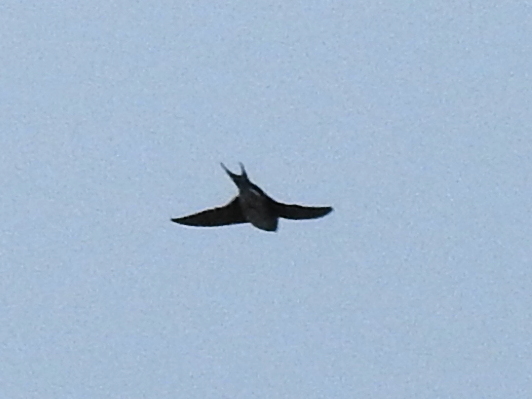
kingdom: Animalia
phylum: Chordata
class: Aves
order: Passeriformes
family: Hirundinidae
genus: Hirundo
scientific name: Hirundo neoxena
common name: Welcome swallow
